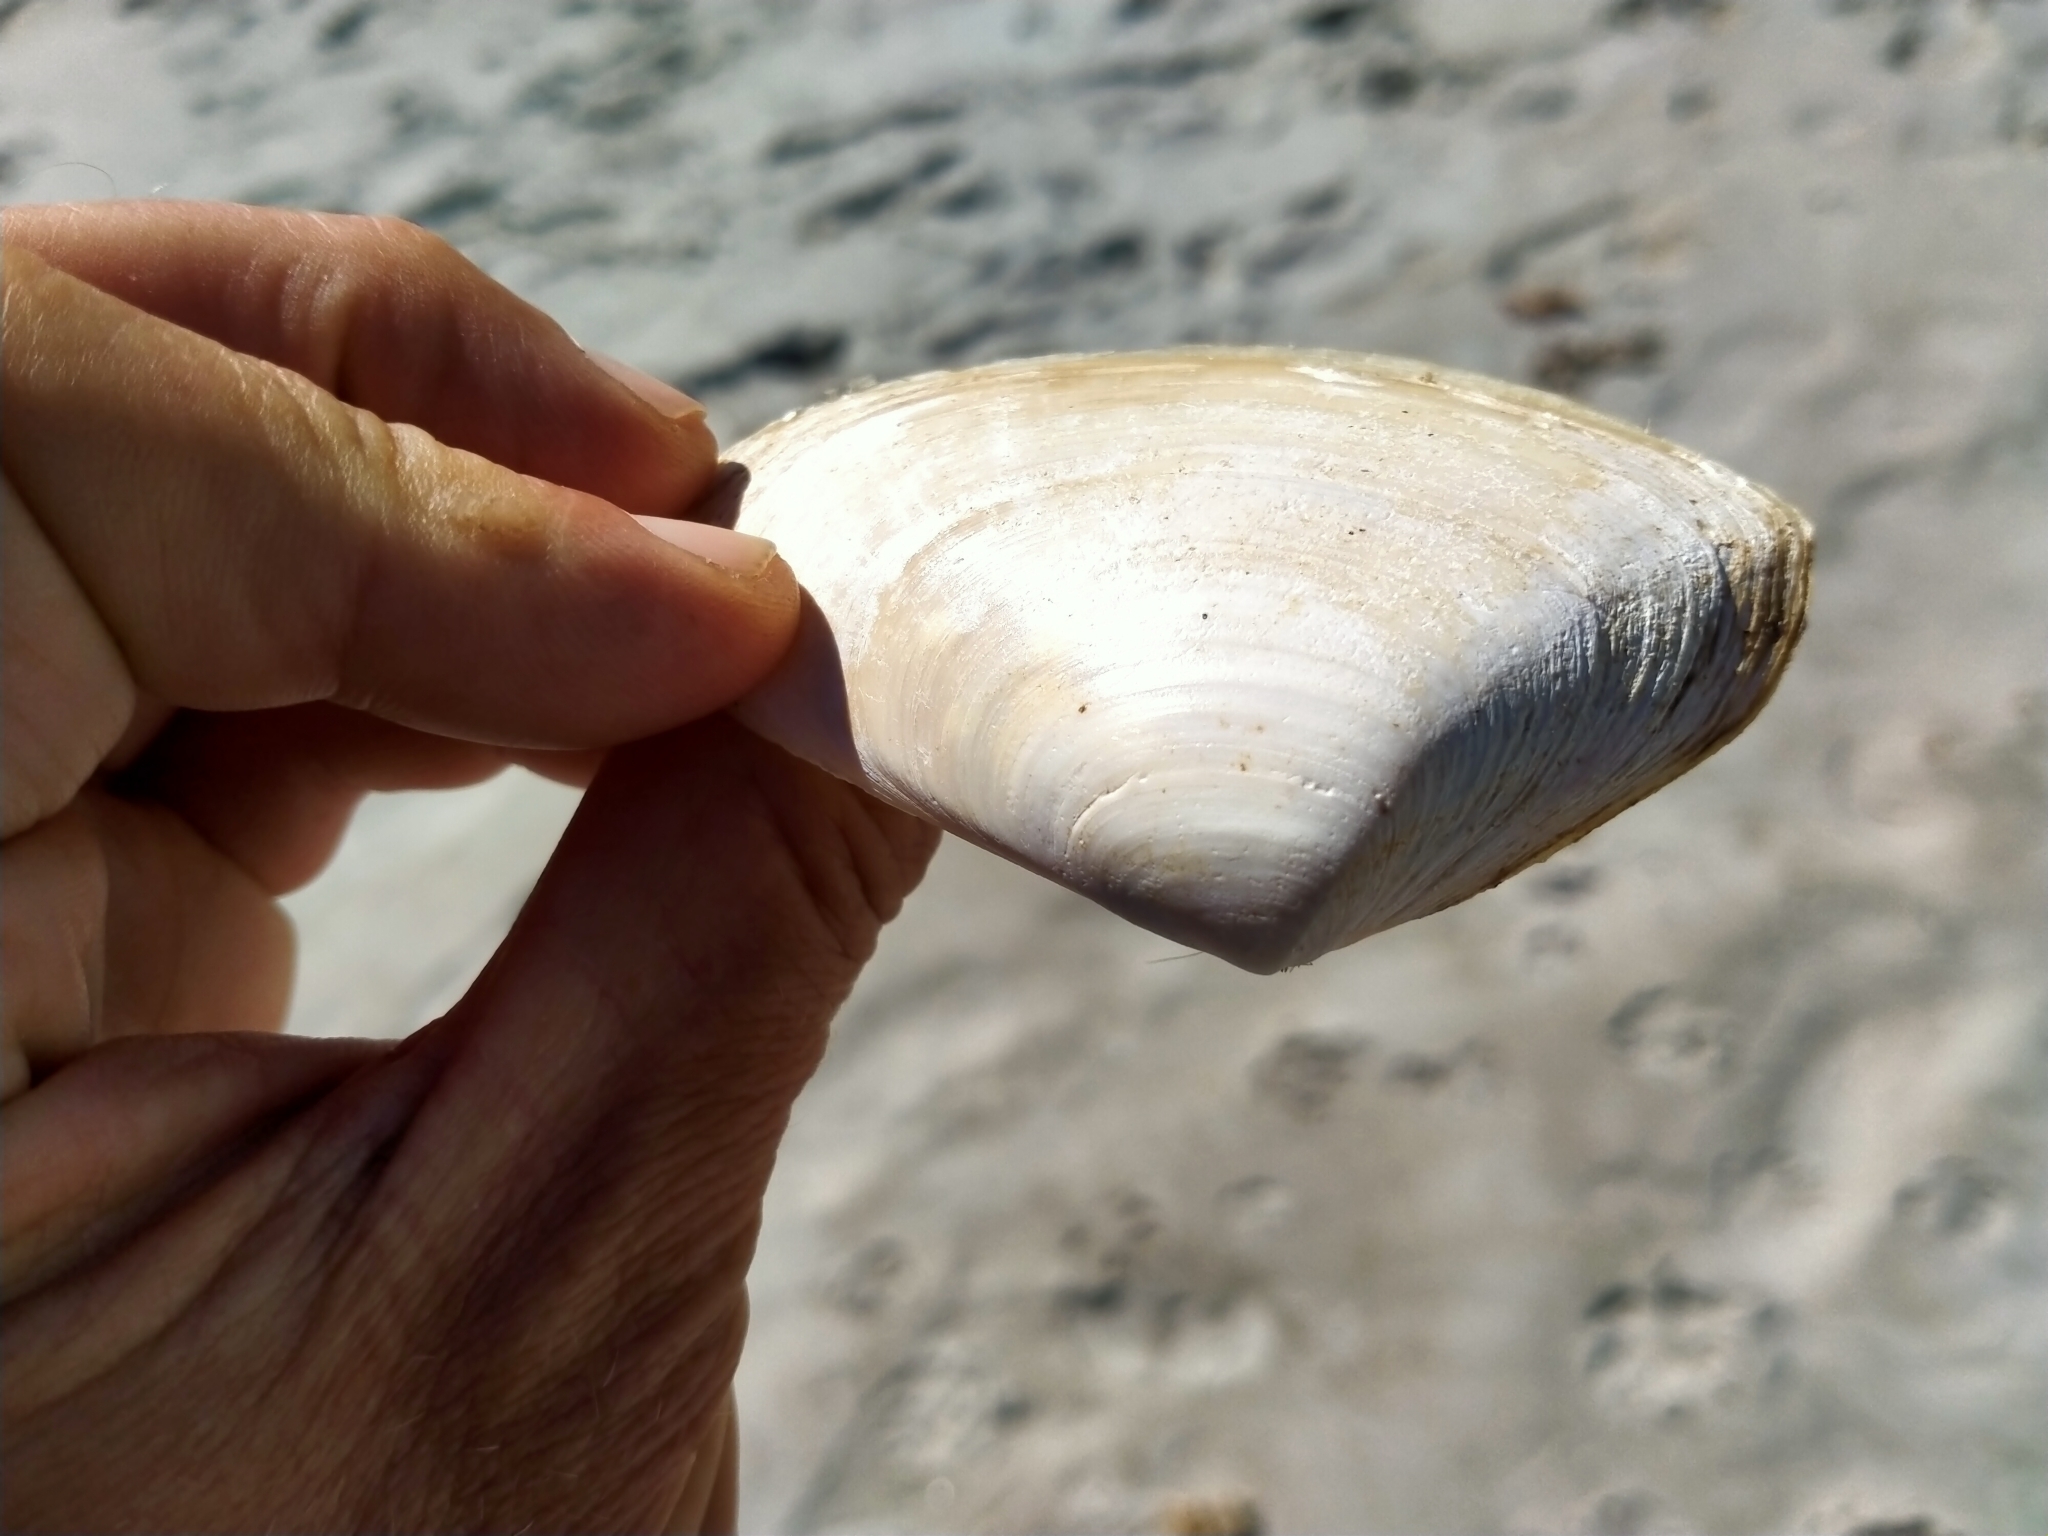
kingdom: Animalia
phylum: Mollusca
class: Bivalvia
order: Venerida
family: Mesodesmatidae
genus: Paphies
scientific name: Paphies donacina
